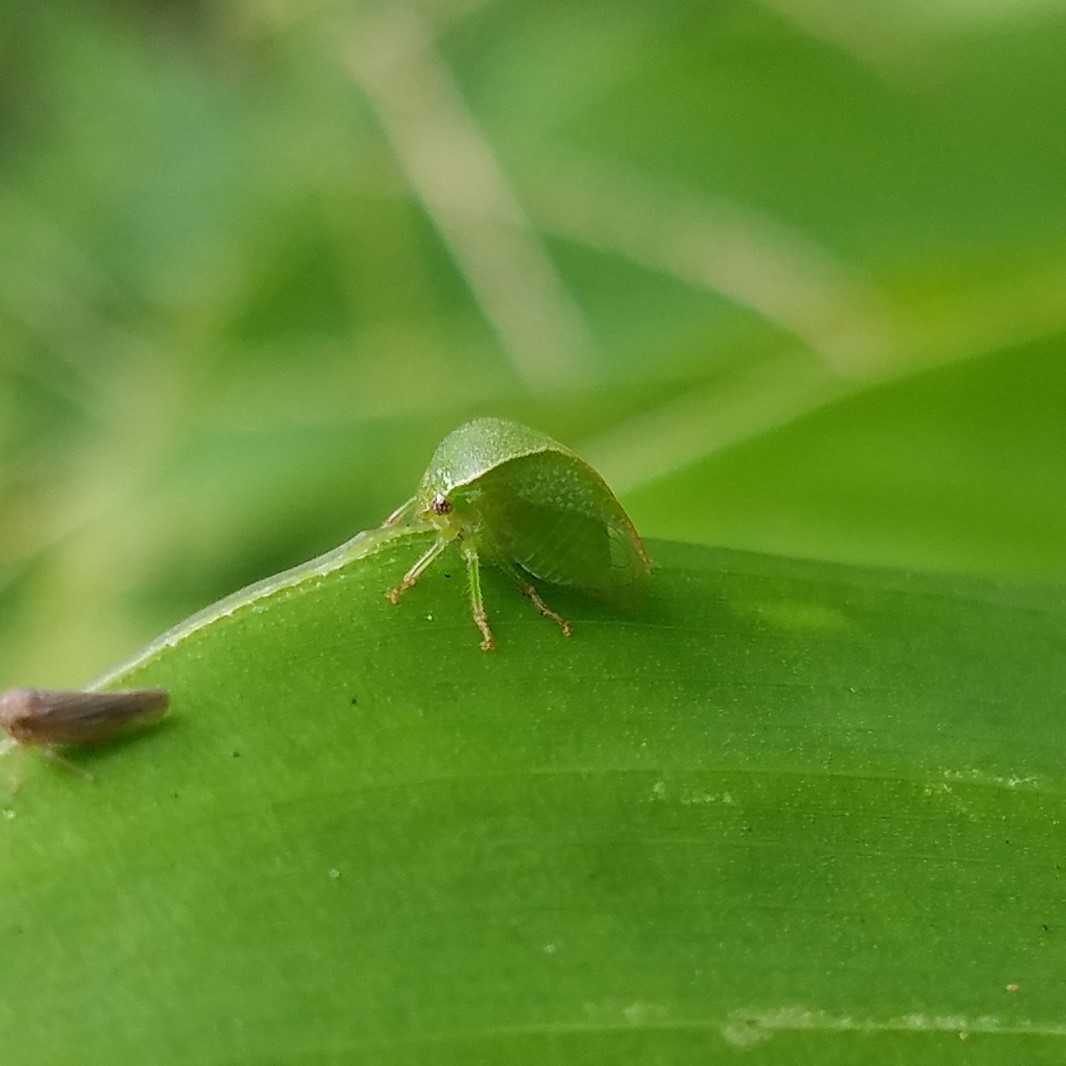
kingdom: Animalia
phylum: Arthropoda
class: Insecta
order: Hemiptera
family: Membracidae
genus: Spissistilus
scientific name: Spissistilus festina
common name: Membracid bug
